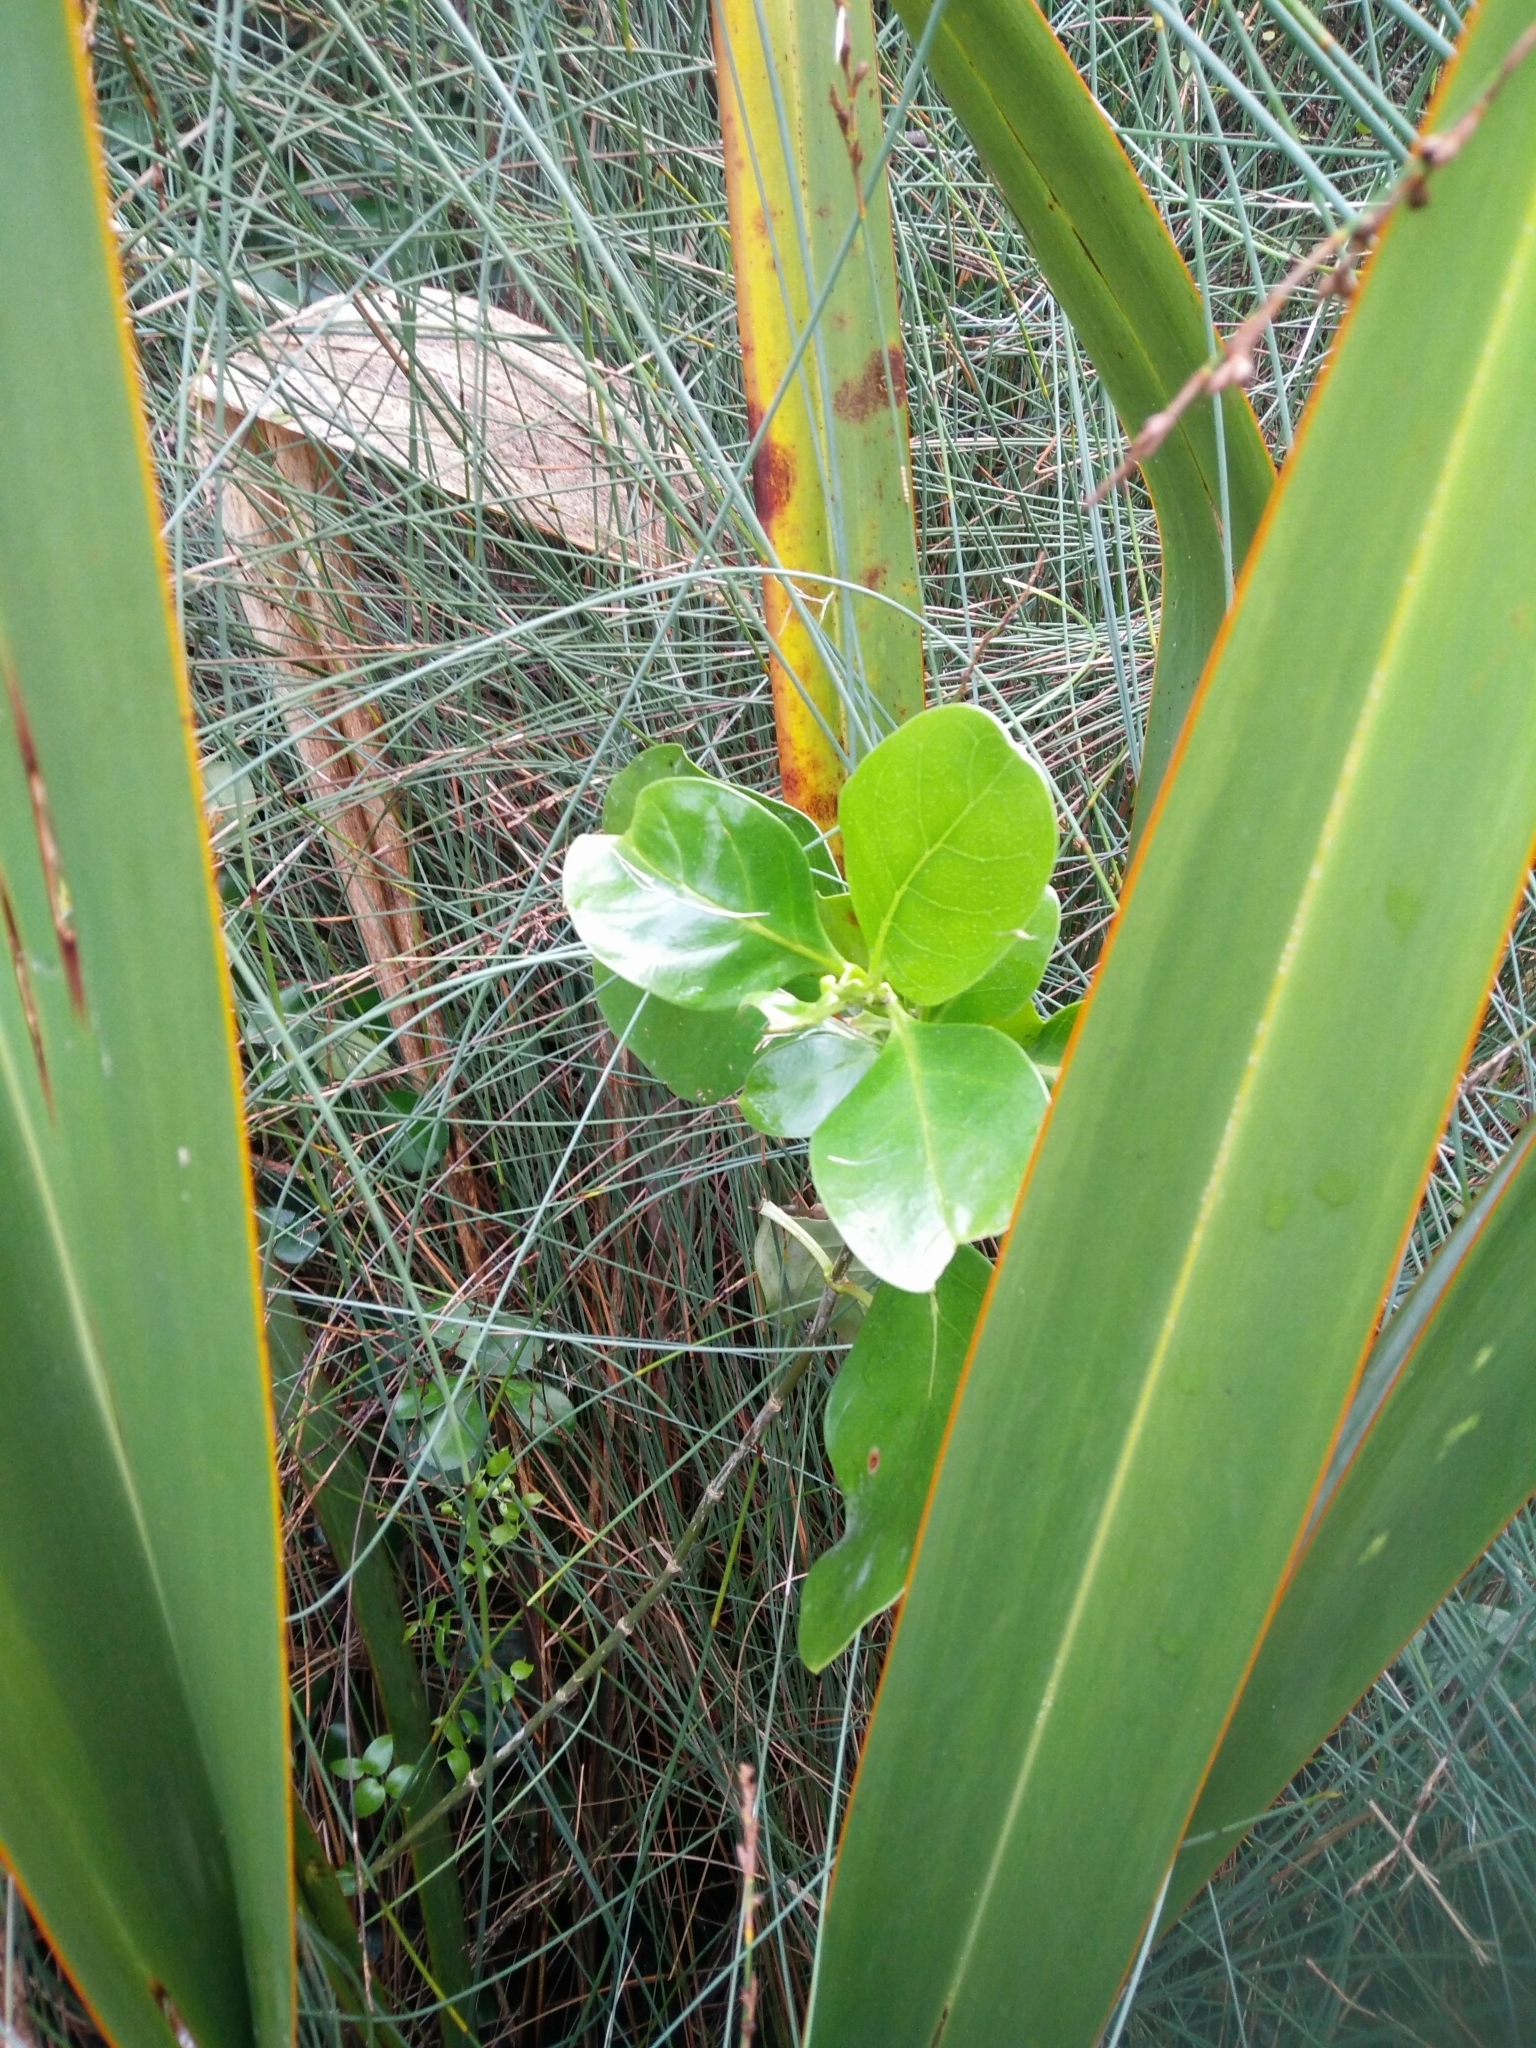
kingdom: Plantae
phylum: Tracheophyta
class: Magnoliopsida
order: Gentianales
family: Rubiaceae
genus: Coprosma
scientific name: Coprosma repens
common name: Tree bedstraw
